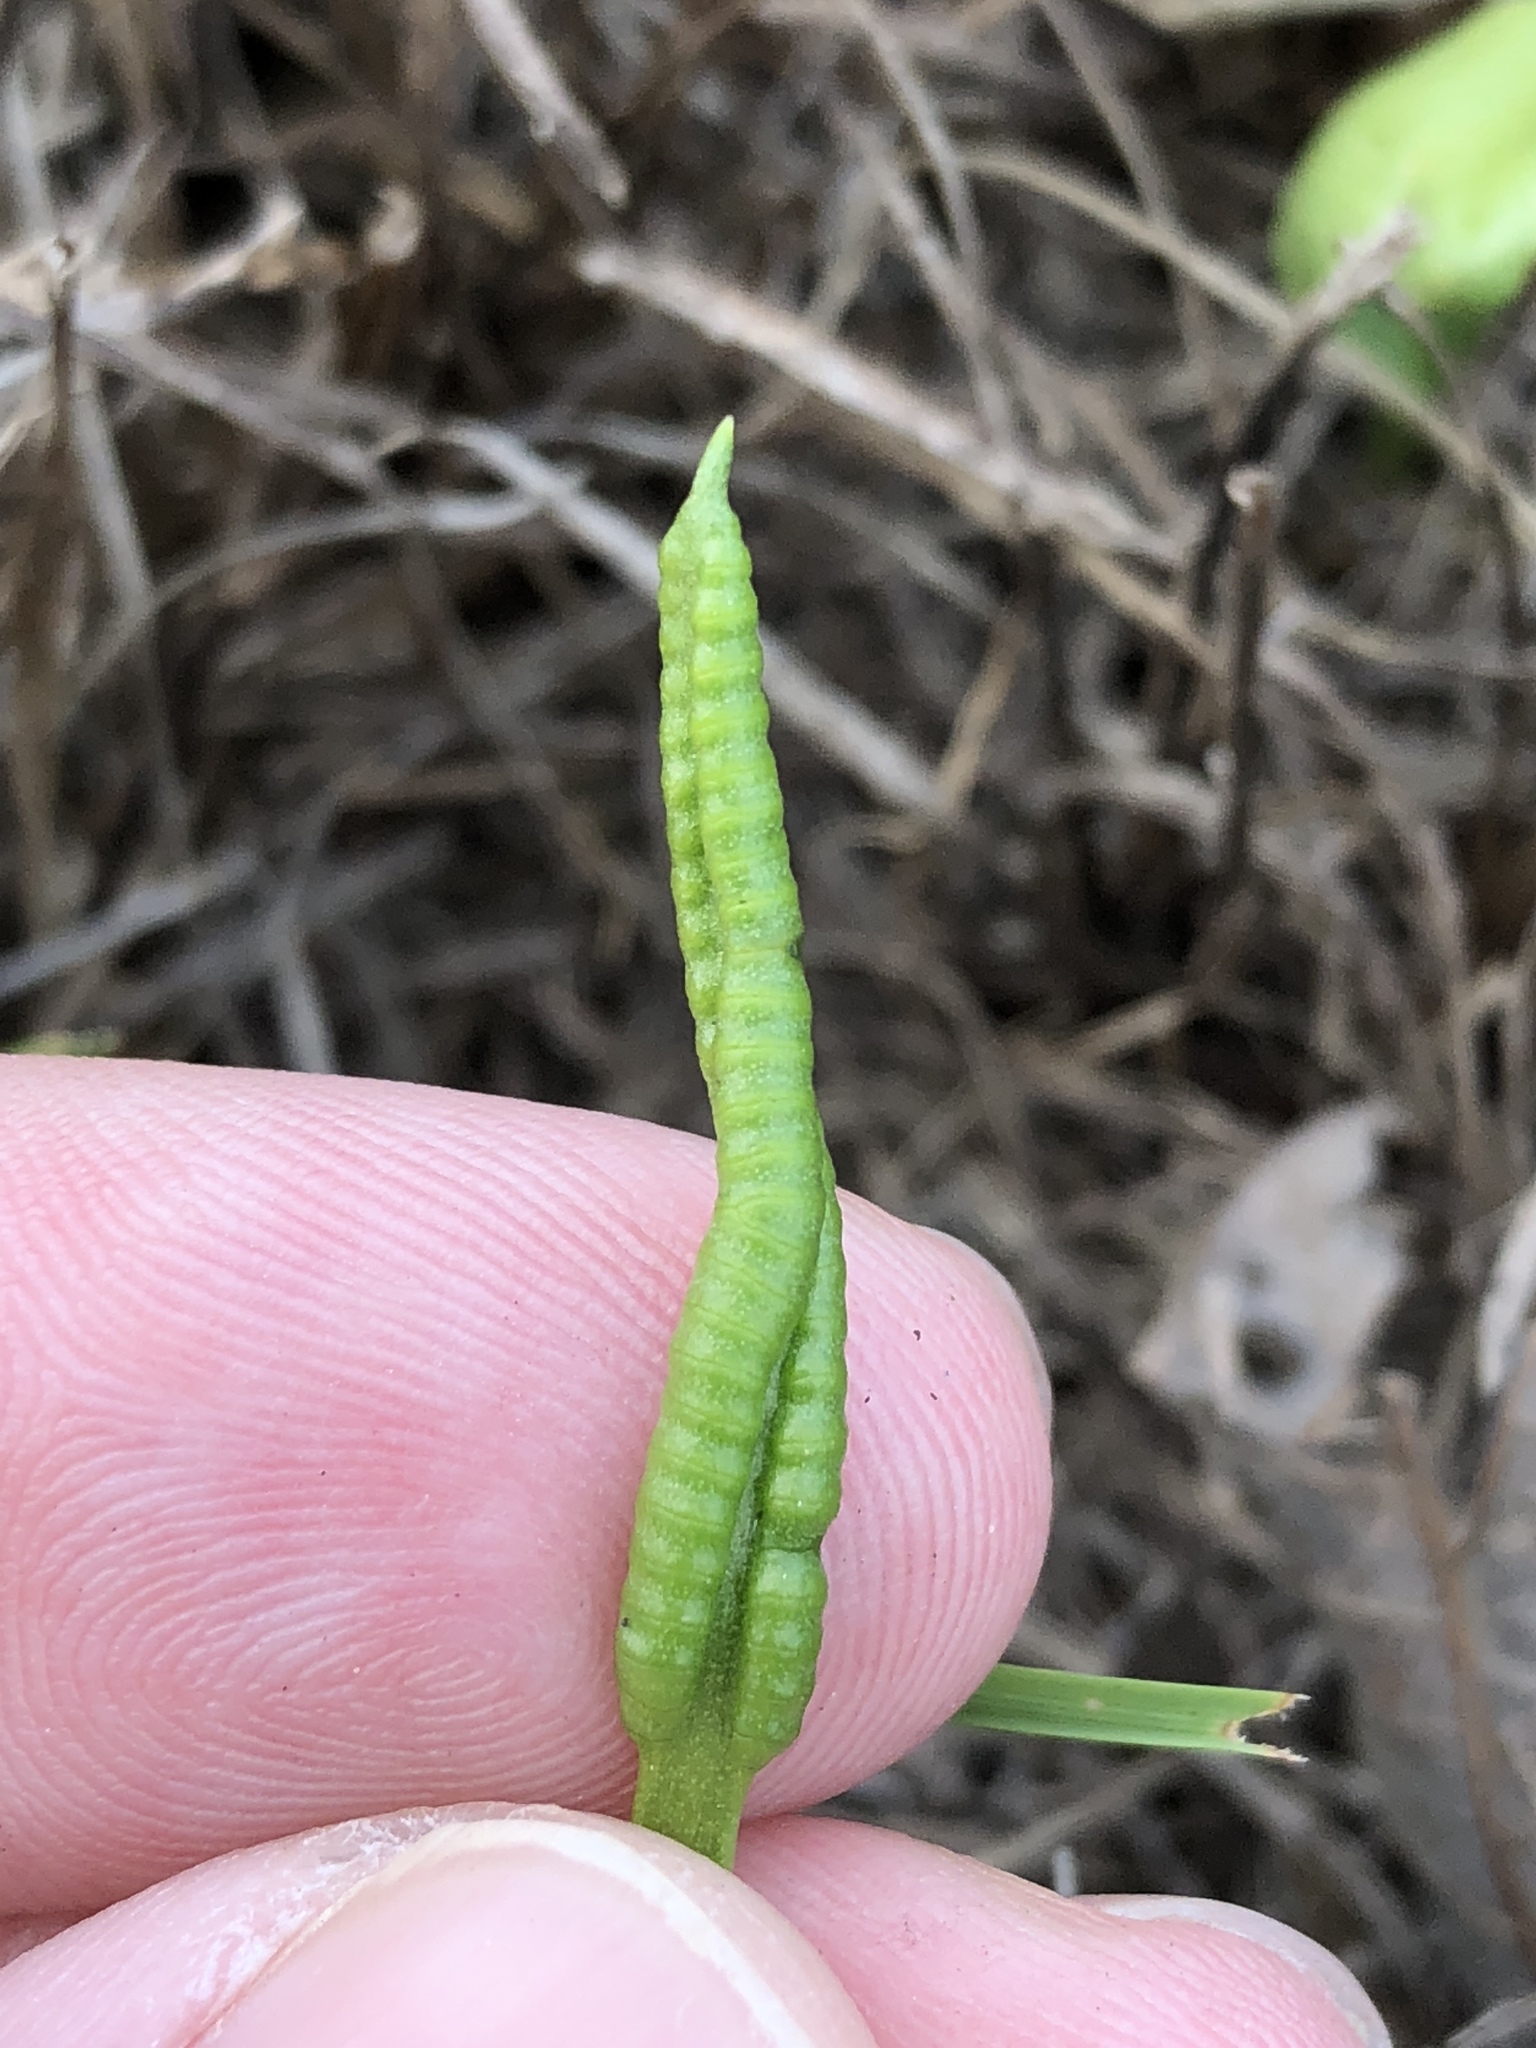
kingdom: Plantae
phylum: Tracheophyta
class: Polypodiopsida
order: Ophioglossales
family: Ophioglossaceae
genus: Ophioglossum
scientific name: Ophioglossum engelmannii
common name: Limestone adder's-tongue
